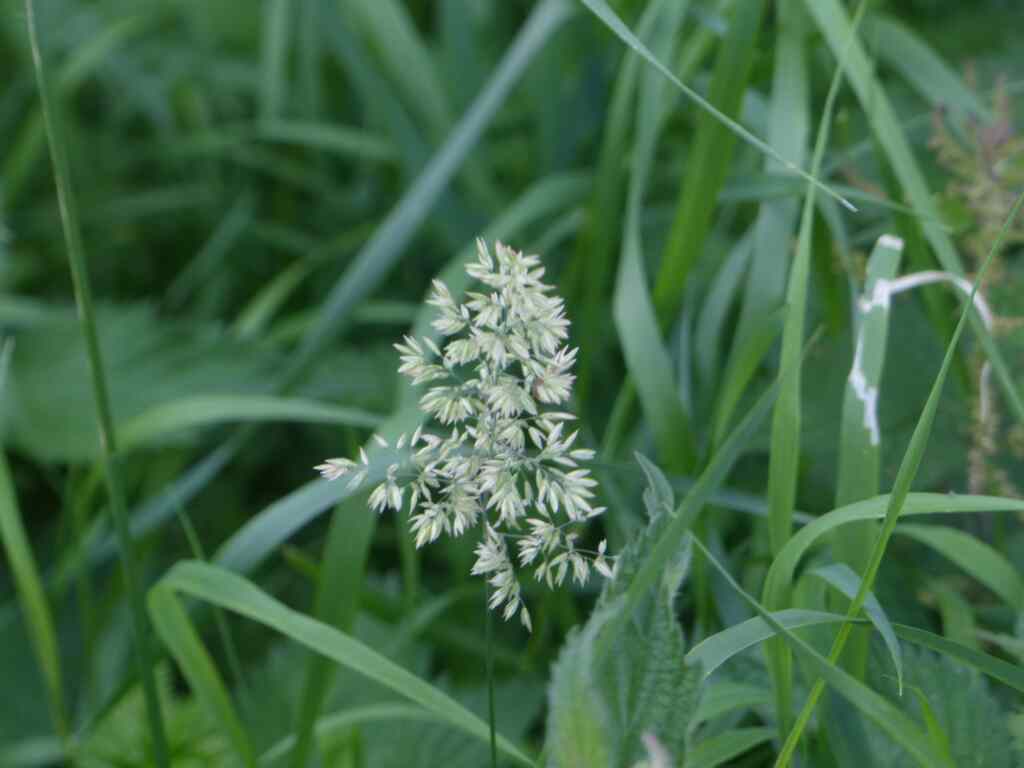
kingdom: Plantae
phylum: Tracheophyta
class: Liliopsida
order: Poales
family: Poaceae
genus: Holcus
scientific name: Holcus lanatus
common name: Yorkshire-fog
